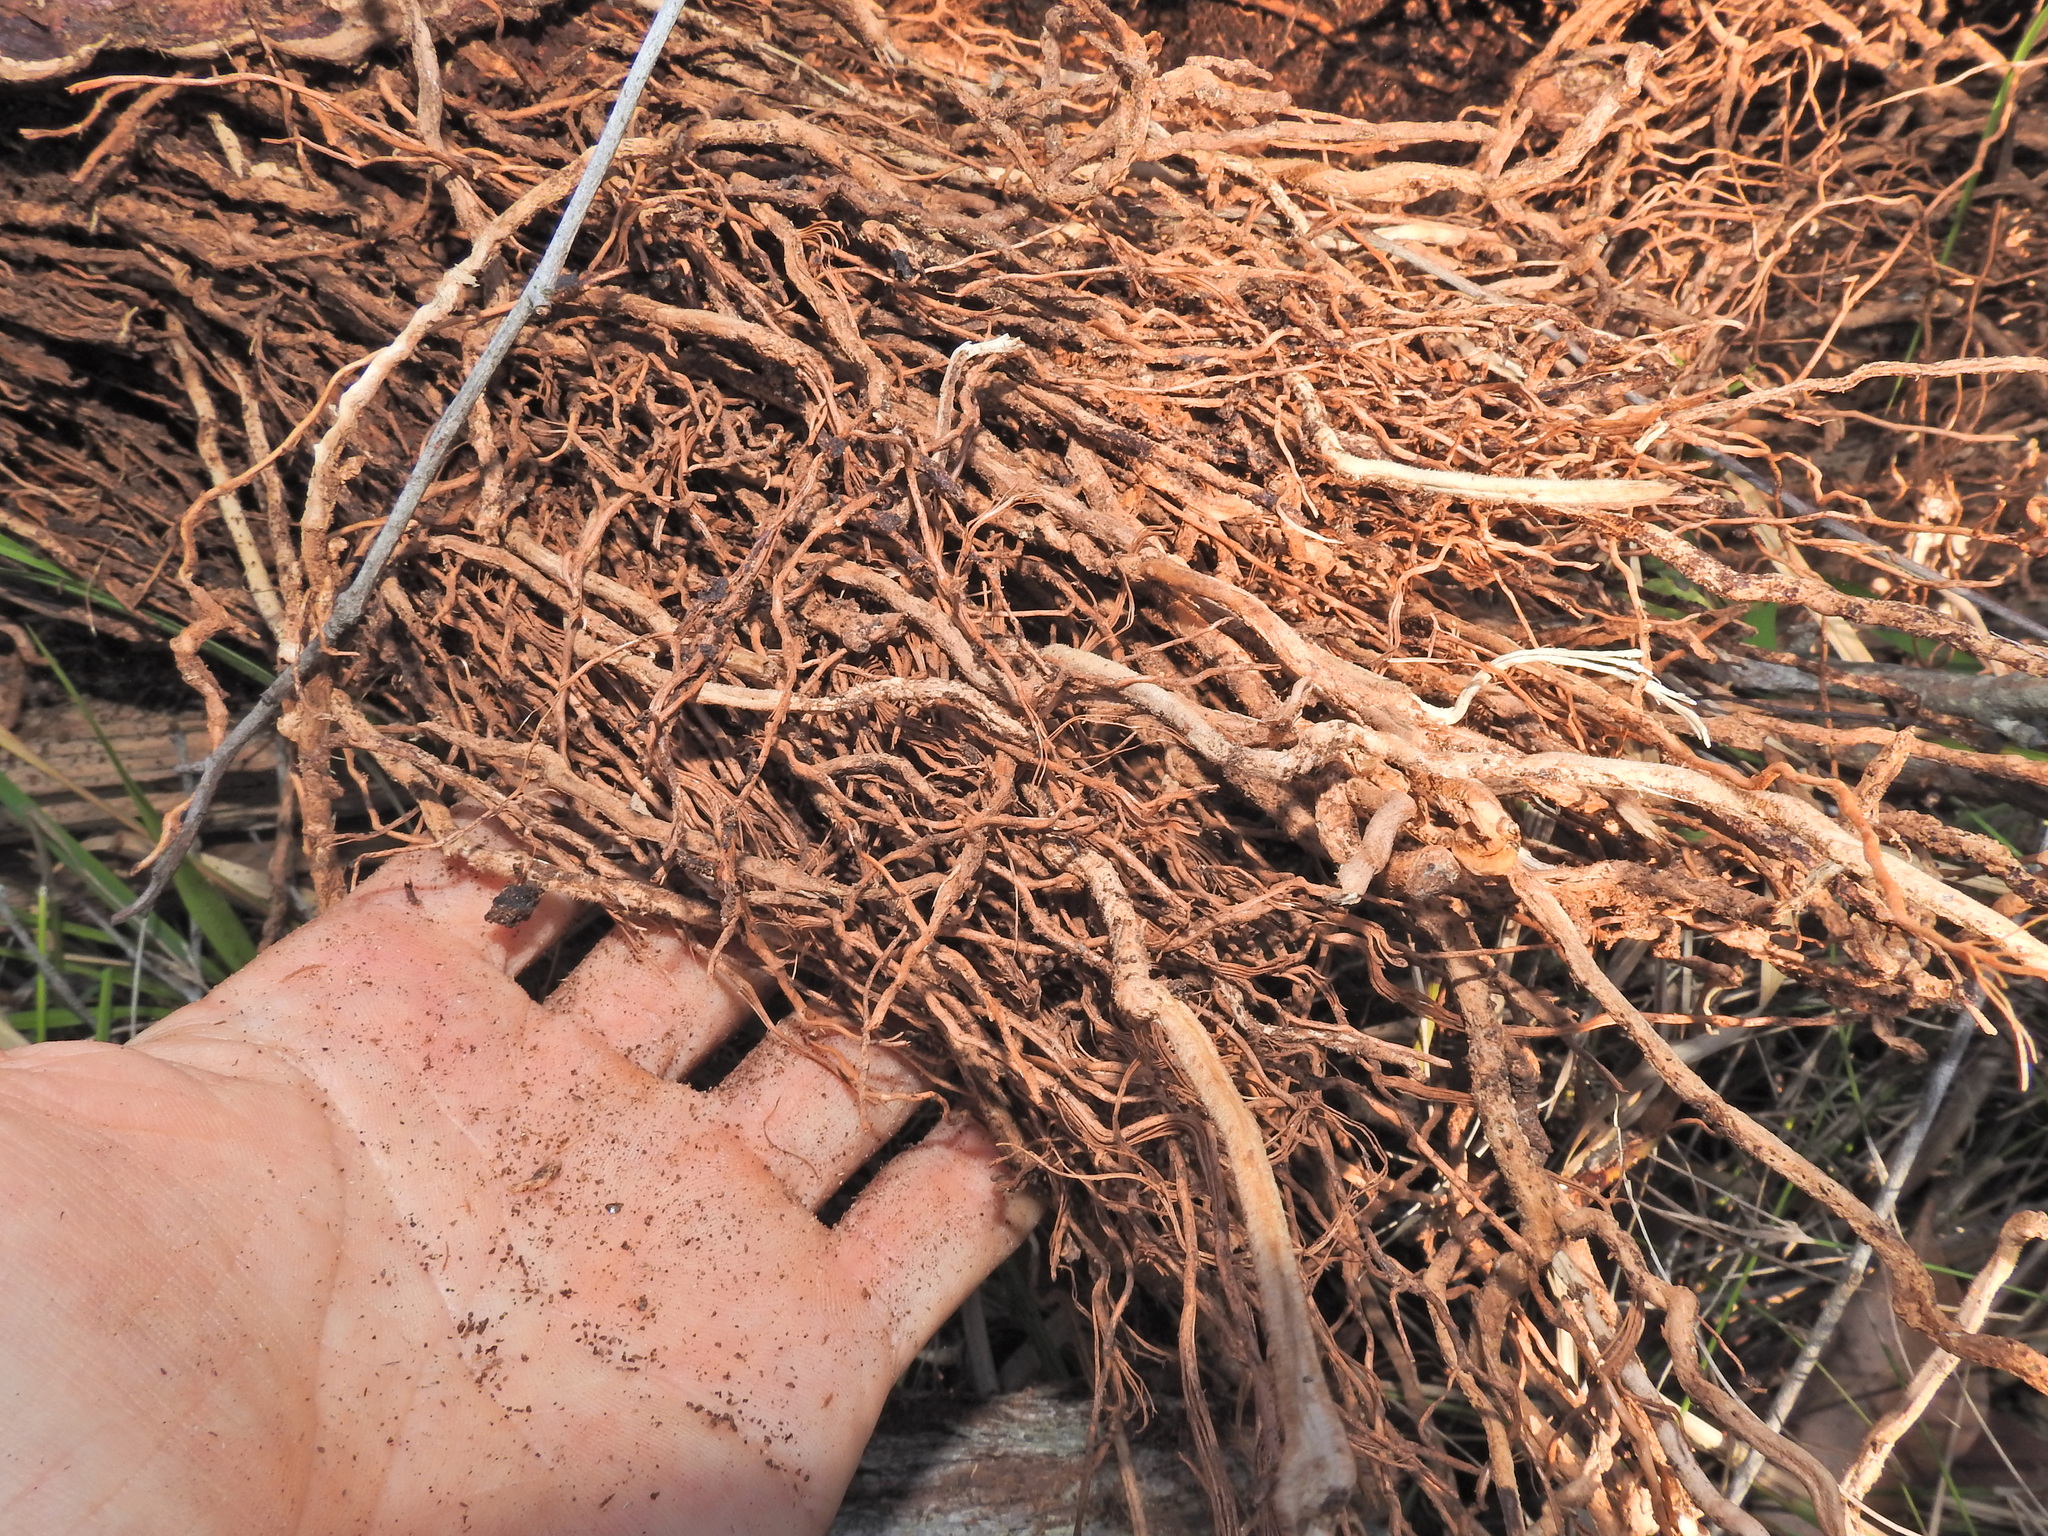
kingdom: Plantae
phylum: Tracheophyta
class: Liliopsida
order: Asparagales
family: Orchidaceae
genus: Cymbidium
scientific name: Cymbidium suave
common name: Snake orchid
